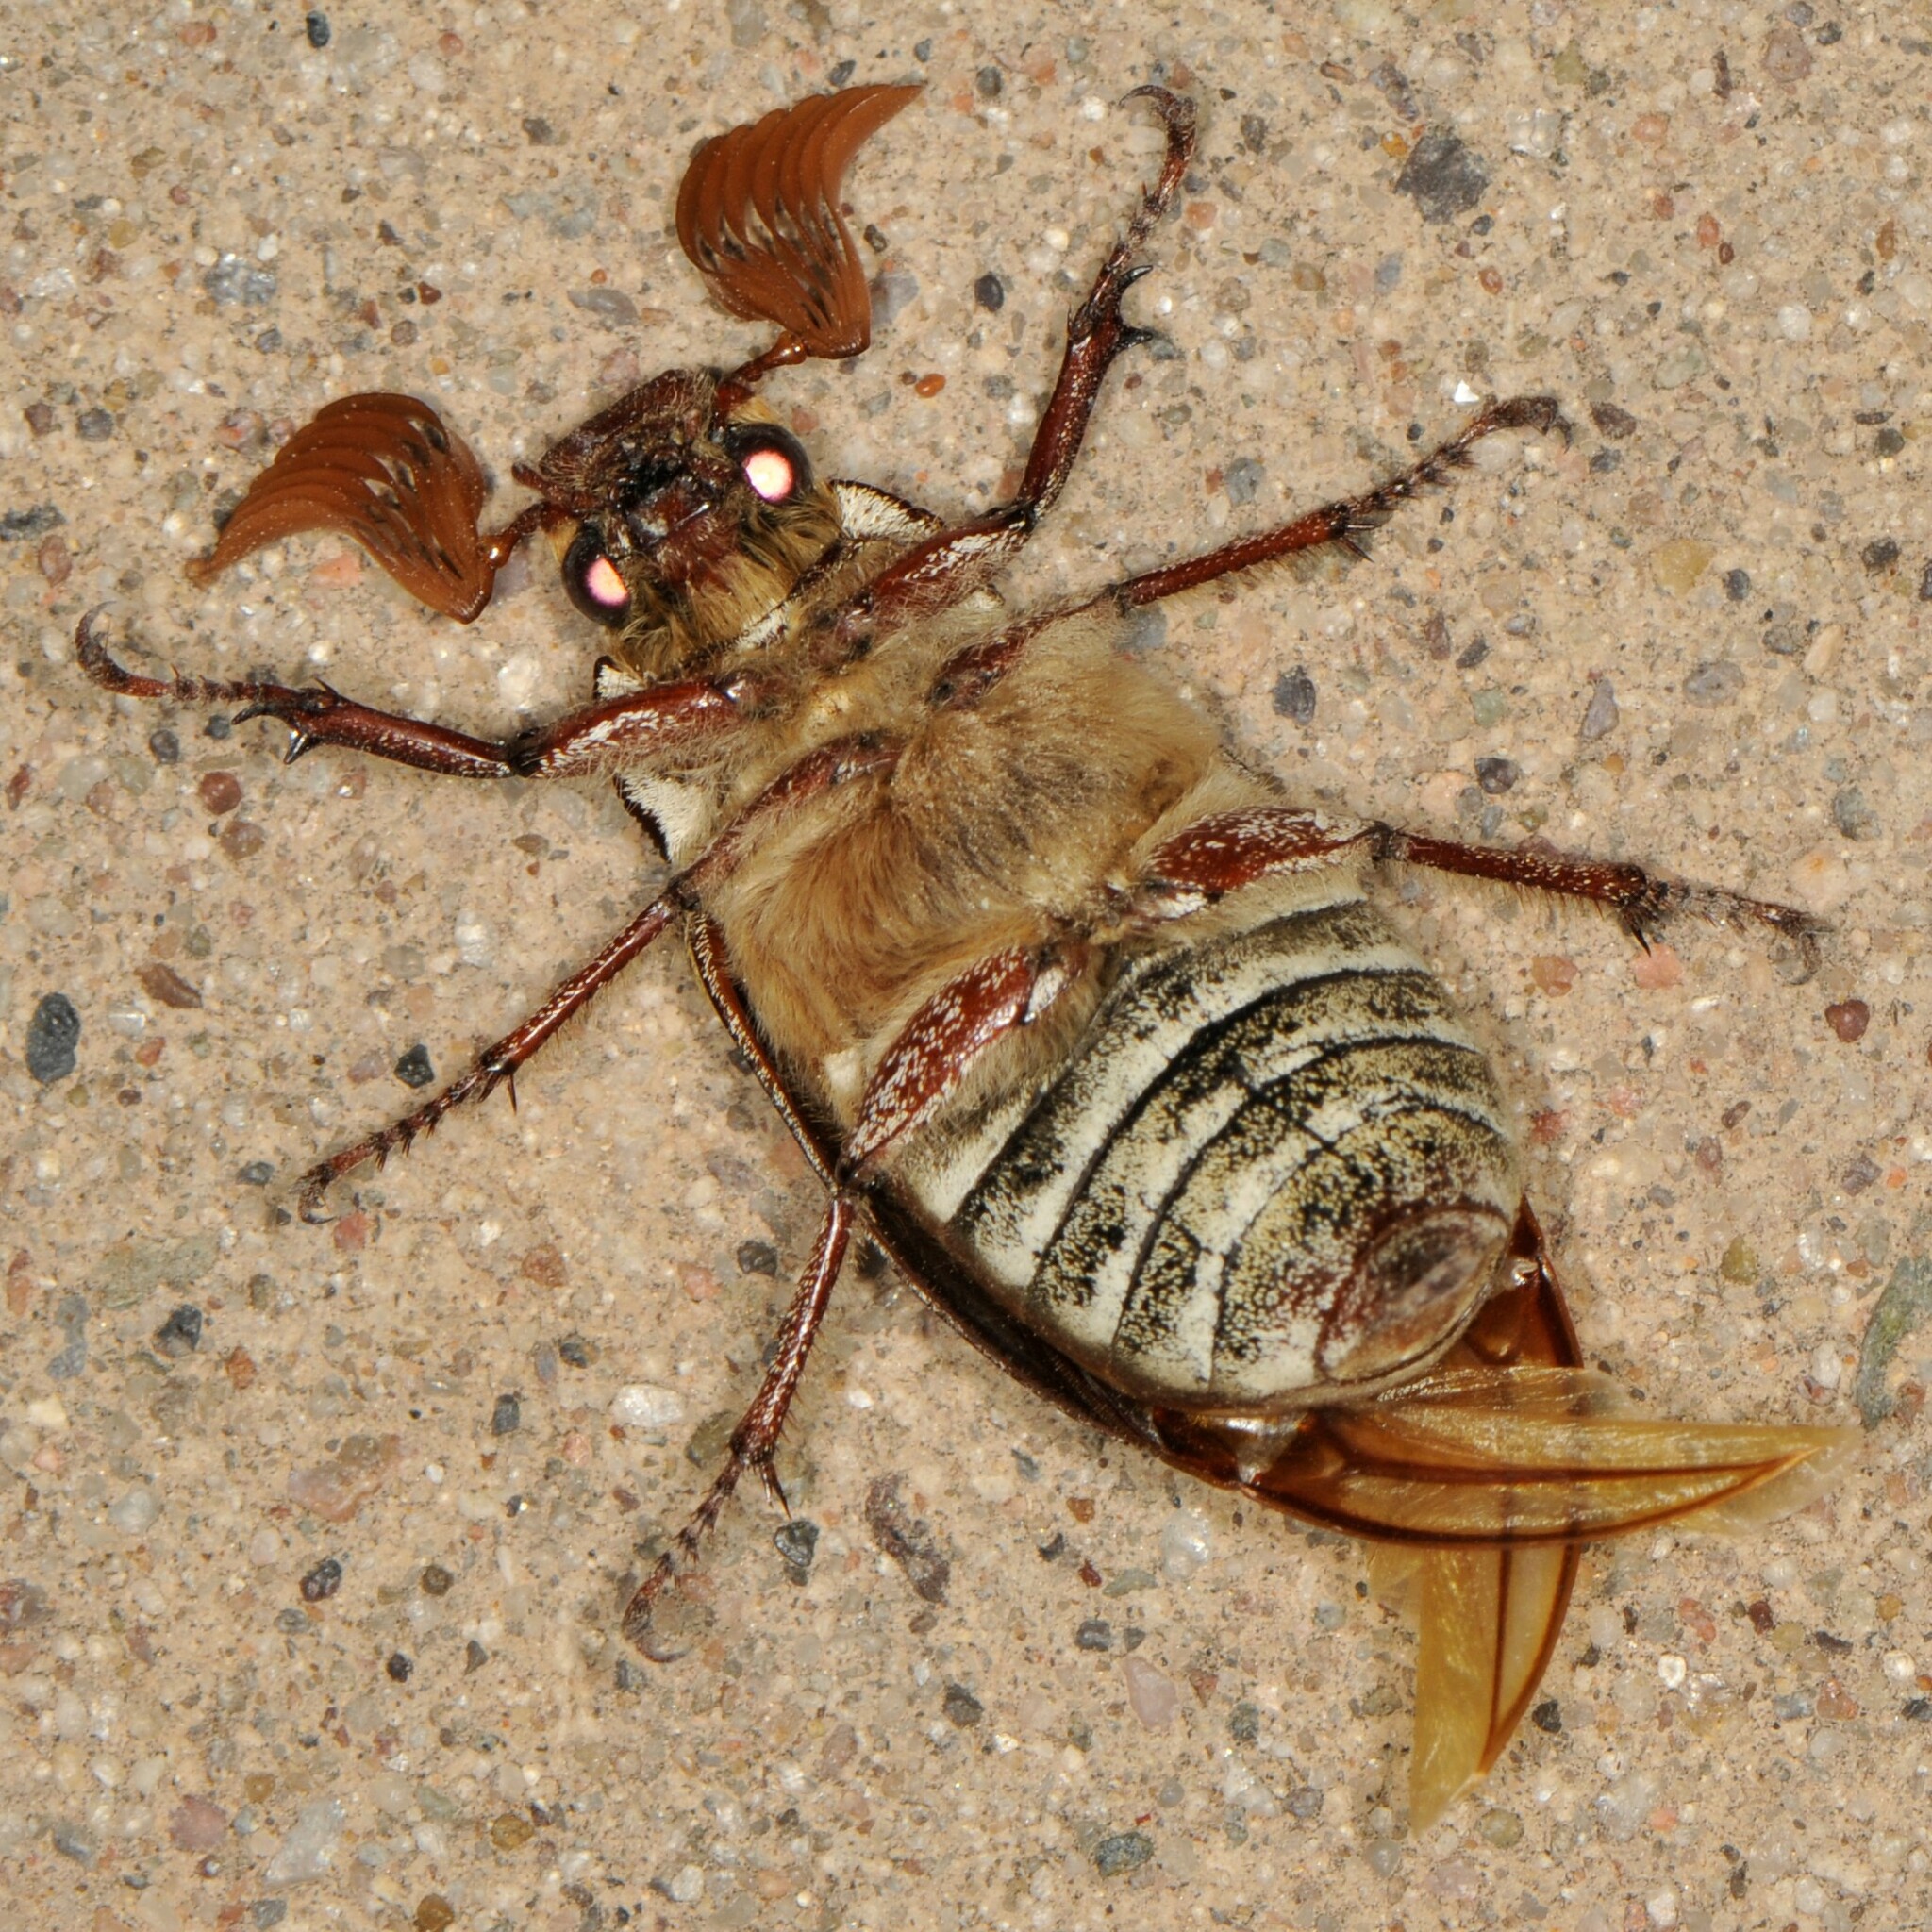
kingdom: Animalia
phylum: Arthropoda
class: Insecta
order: Coleoptera
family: Scarabaeidae
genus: Polyphylla
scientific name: Polyphylla decemlineata
